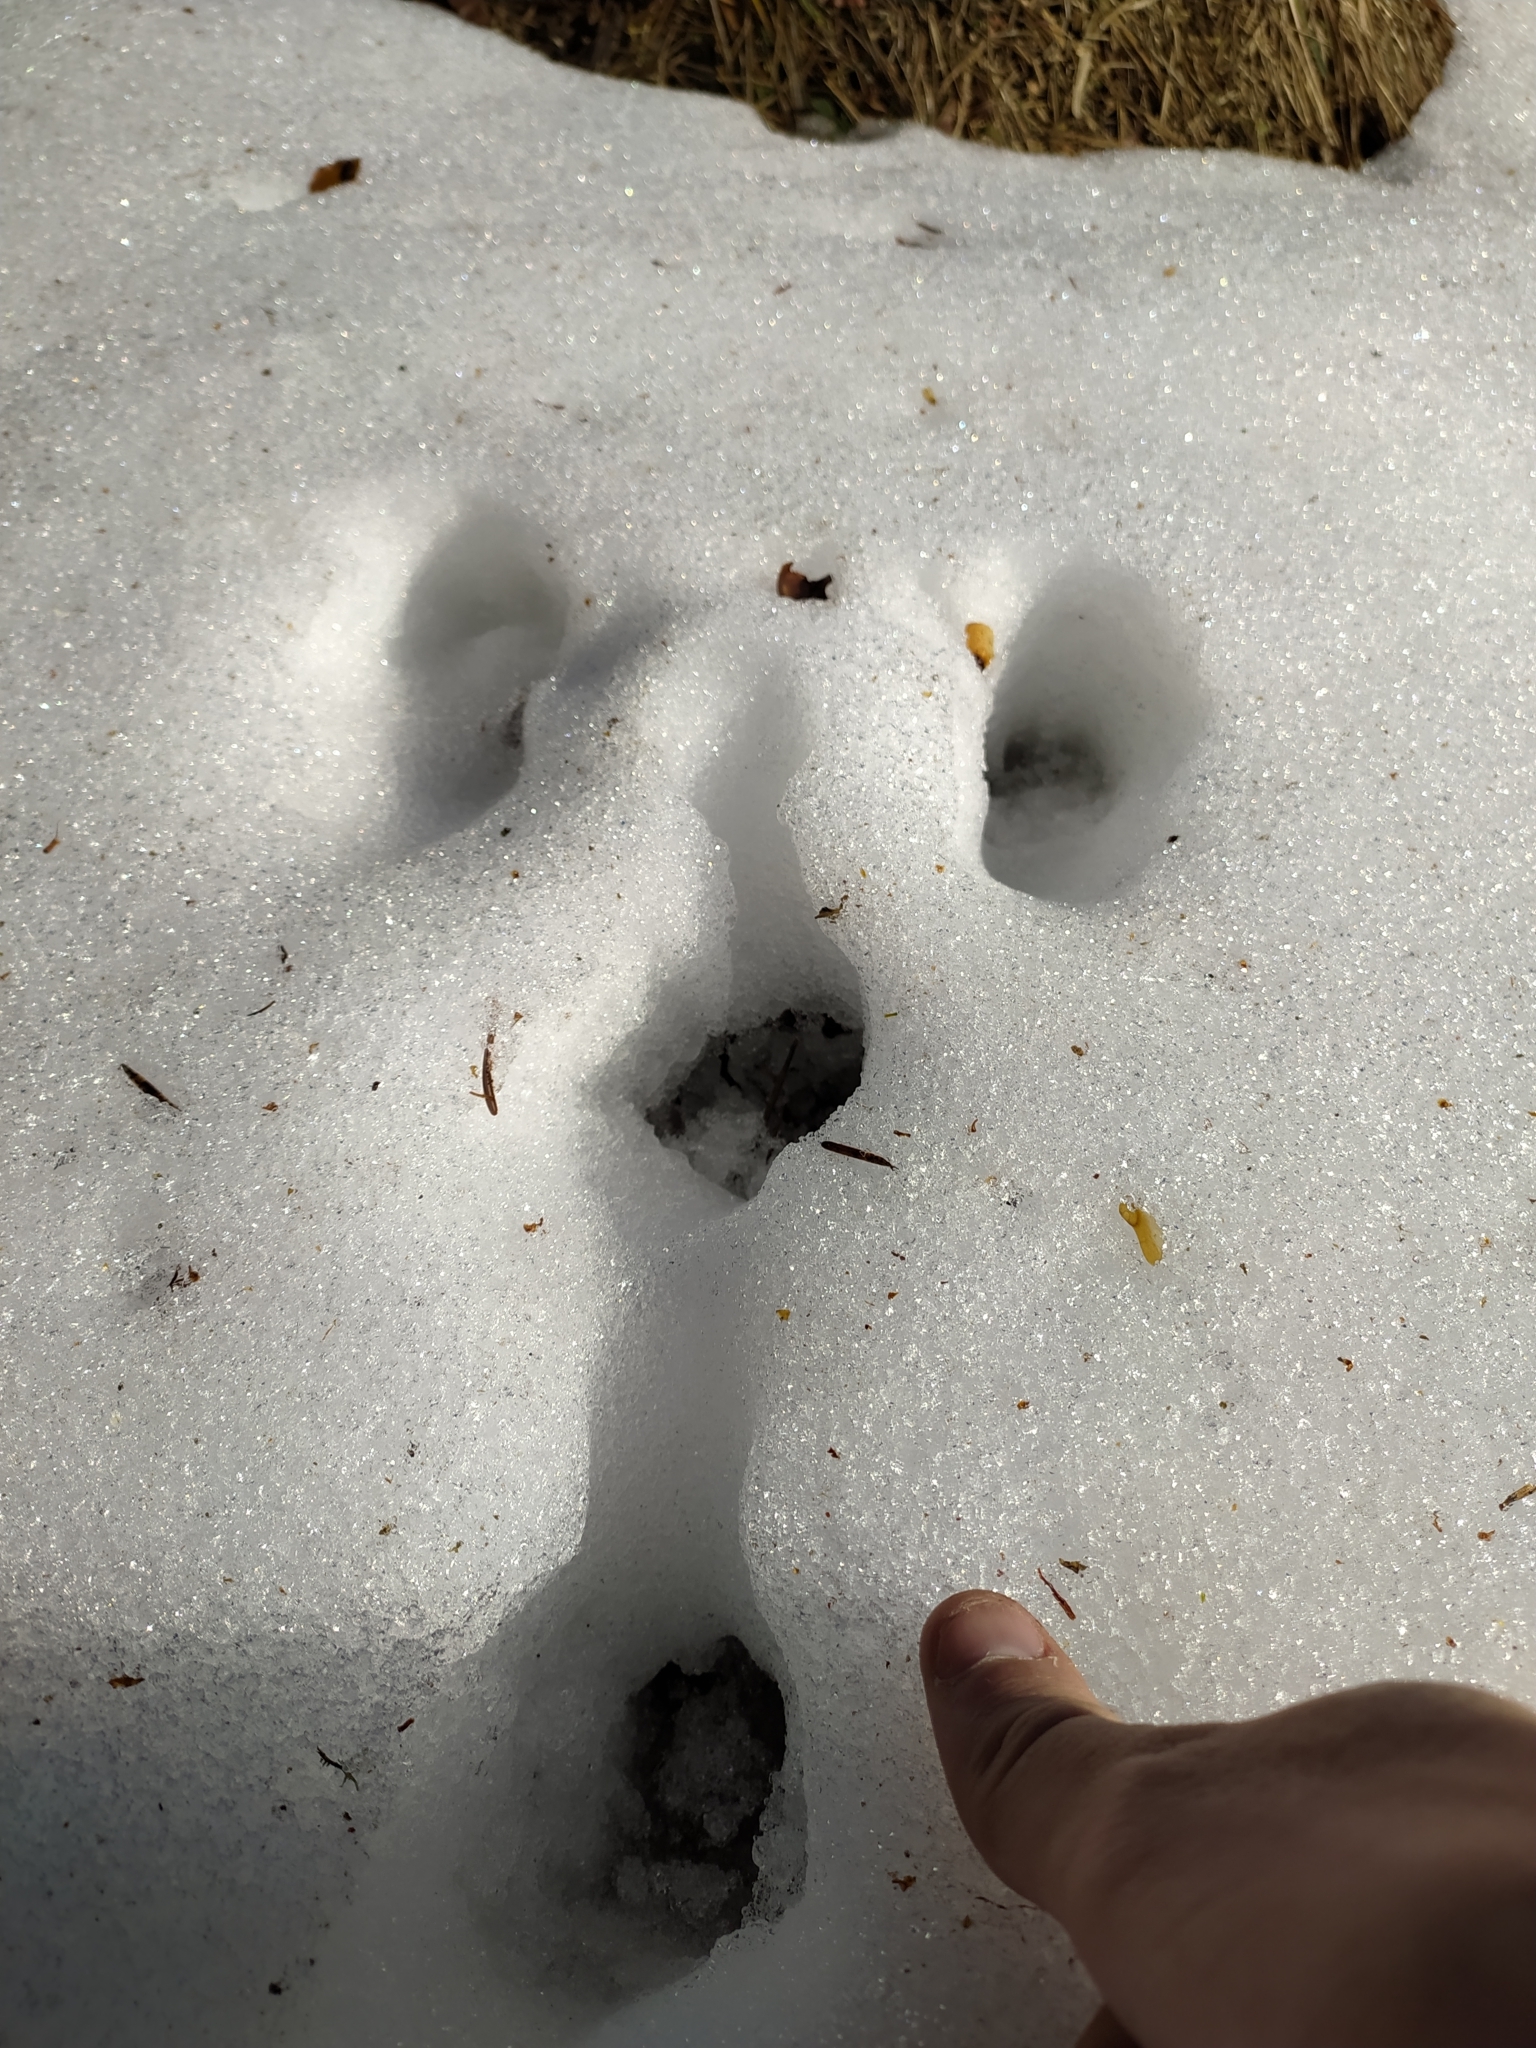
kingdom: Animalia
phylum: Chordata
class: Mammalia
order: Lagomorpha
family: Leporidae
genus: Lepus
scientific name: Lepus
